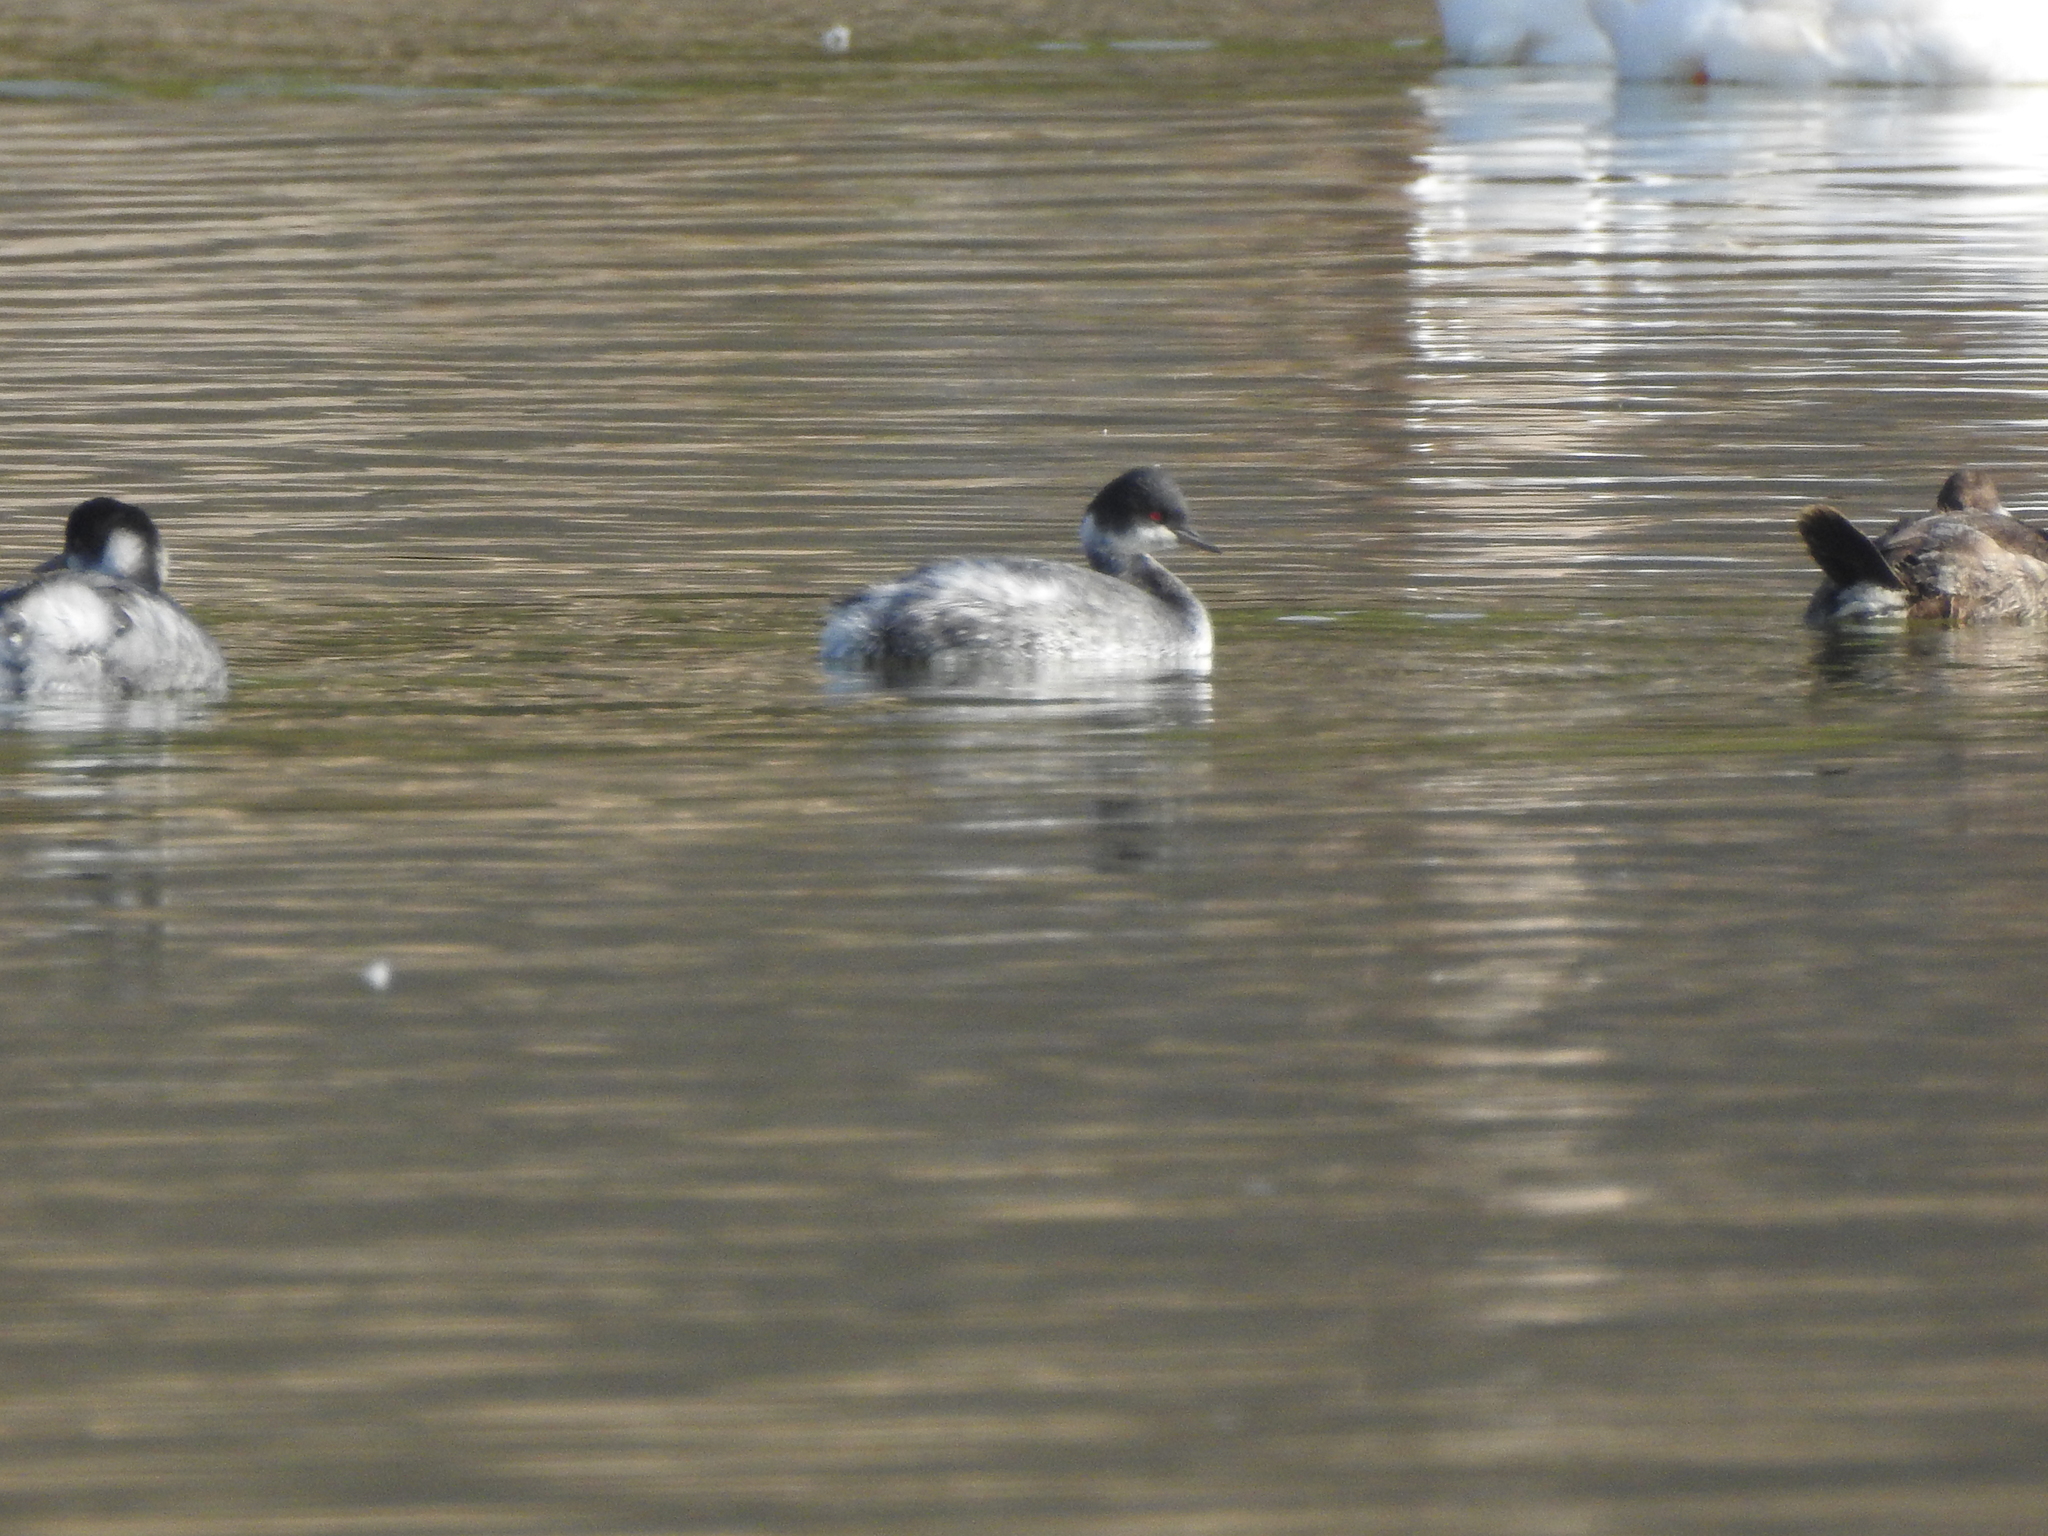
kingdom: Animalia
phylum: Chordata
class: Aves
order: Podicipediformes
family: Podicipedidae
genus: Podiceps
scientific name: Podiceps nigricollis
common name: Black-necked grebe
